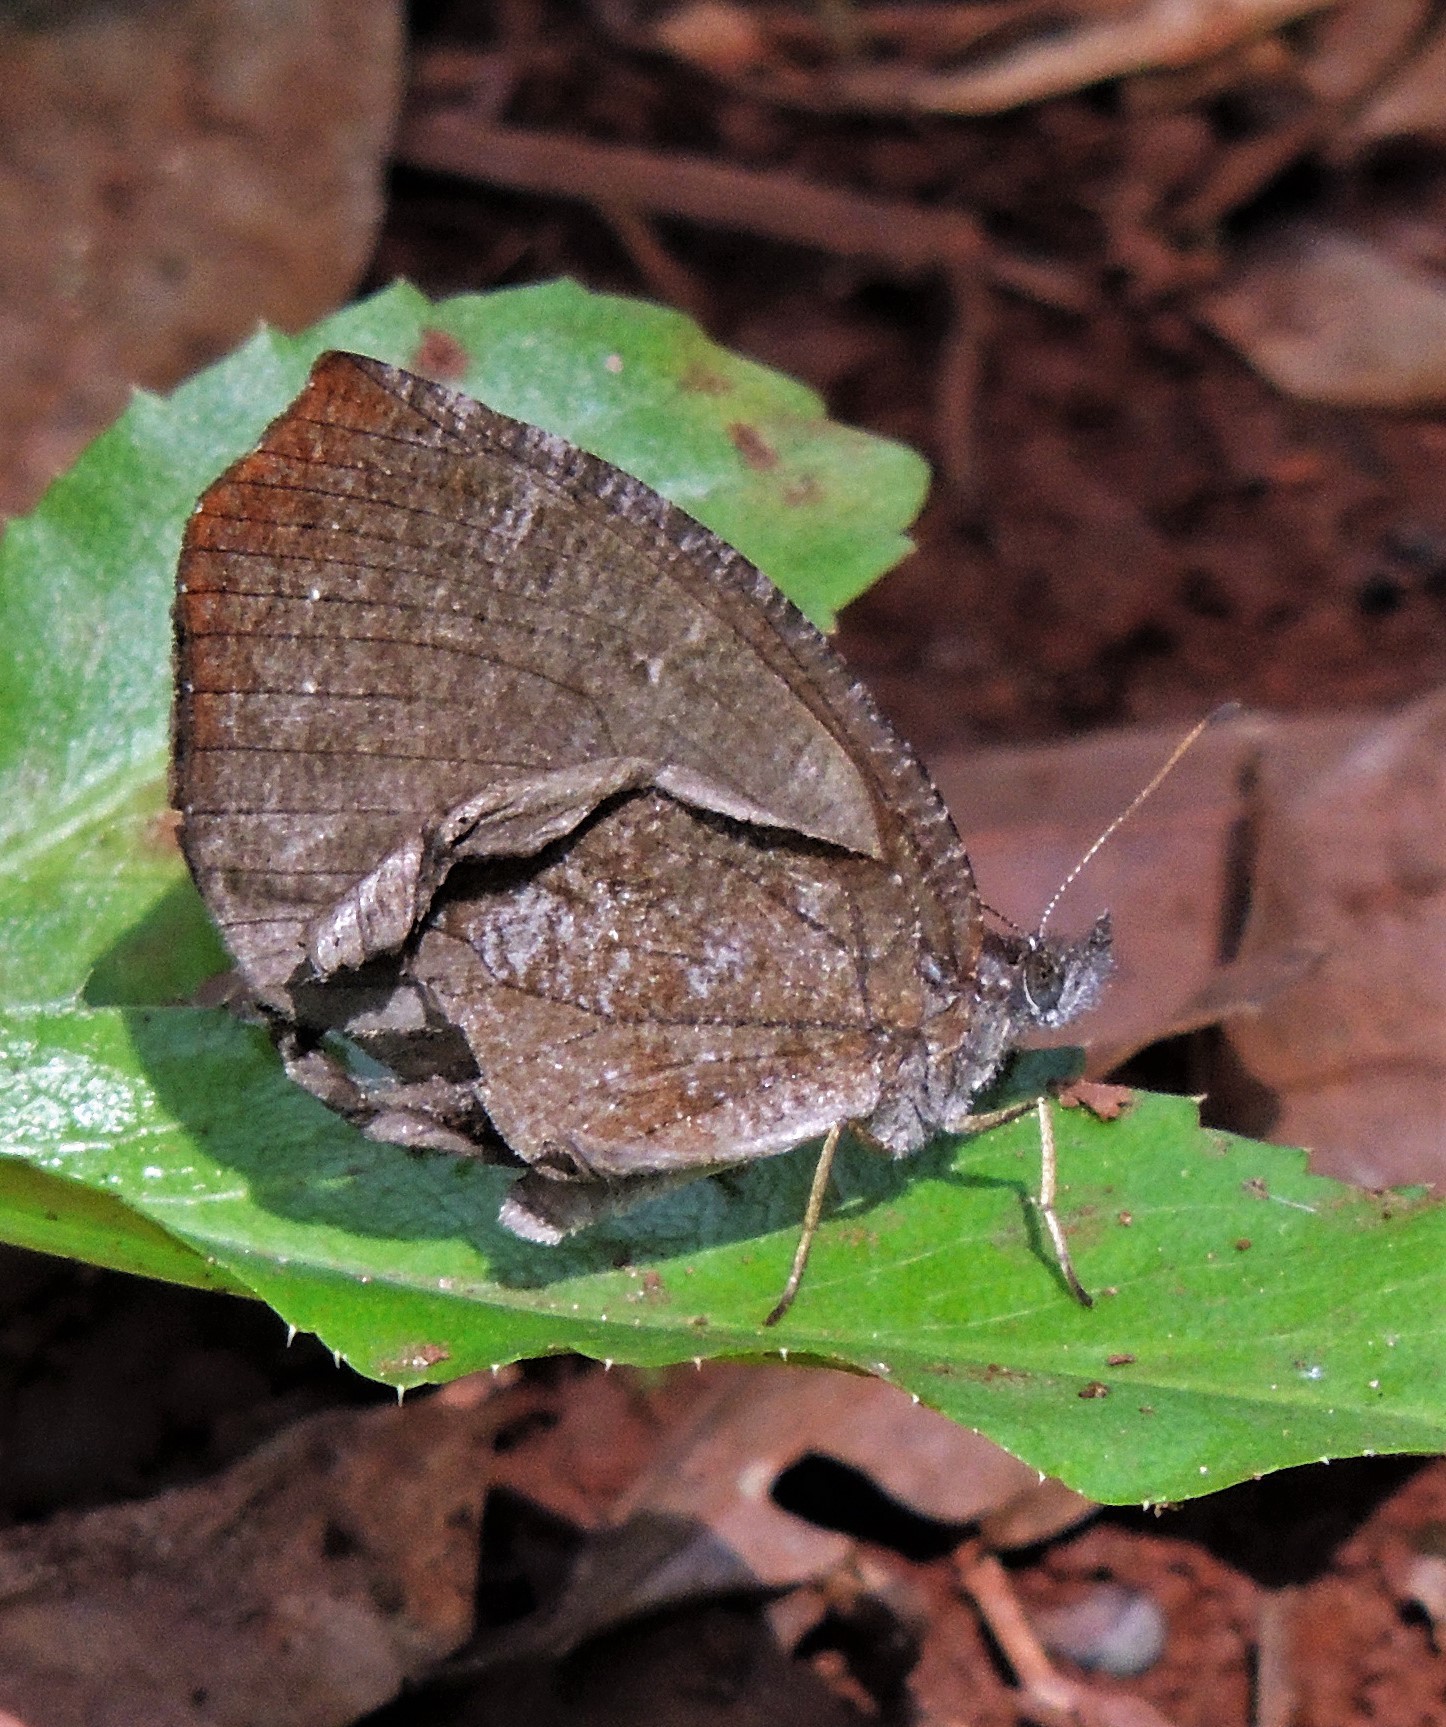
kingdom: Animalia
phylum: Arthropoda
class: Insecta
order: Lepidoptera
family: Nymphalidae
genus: Godartiana
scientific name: Godartiana muscosa
